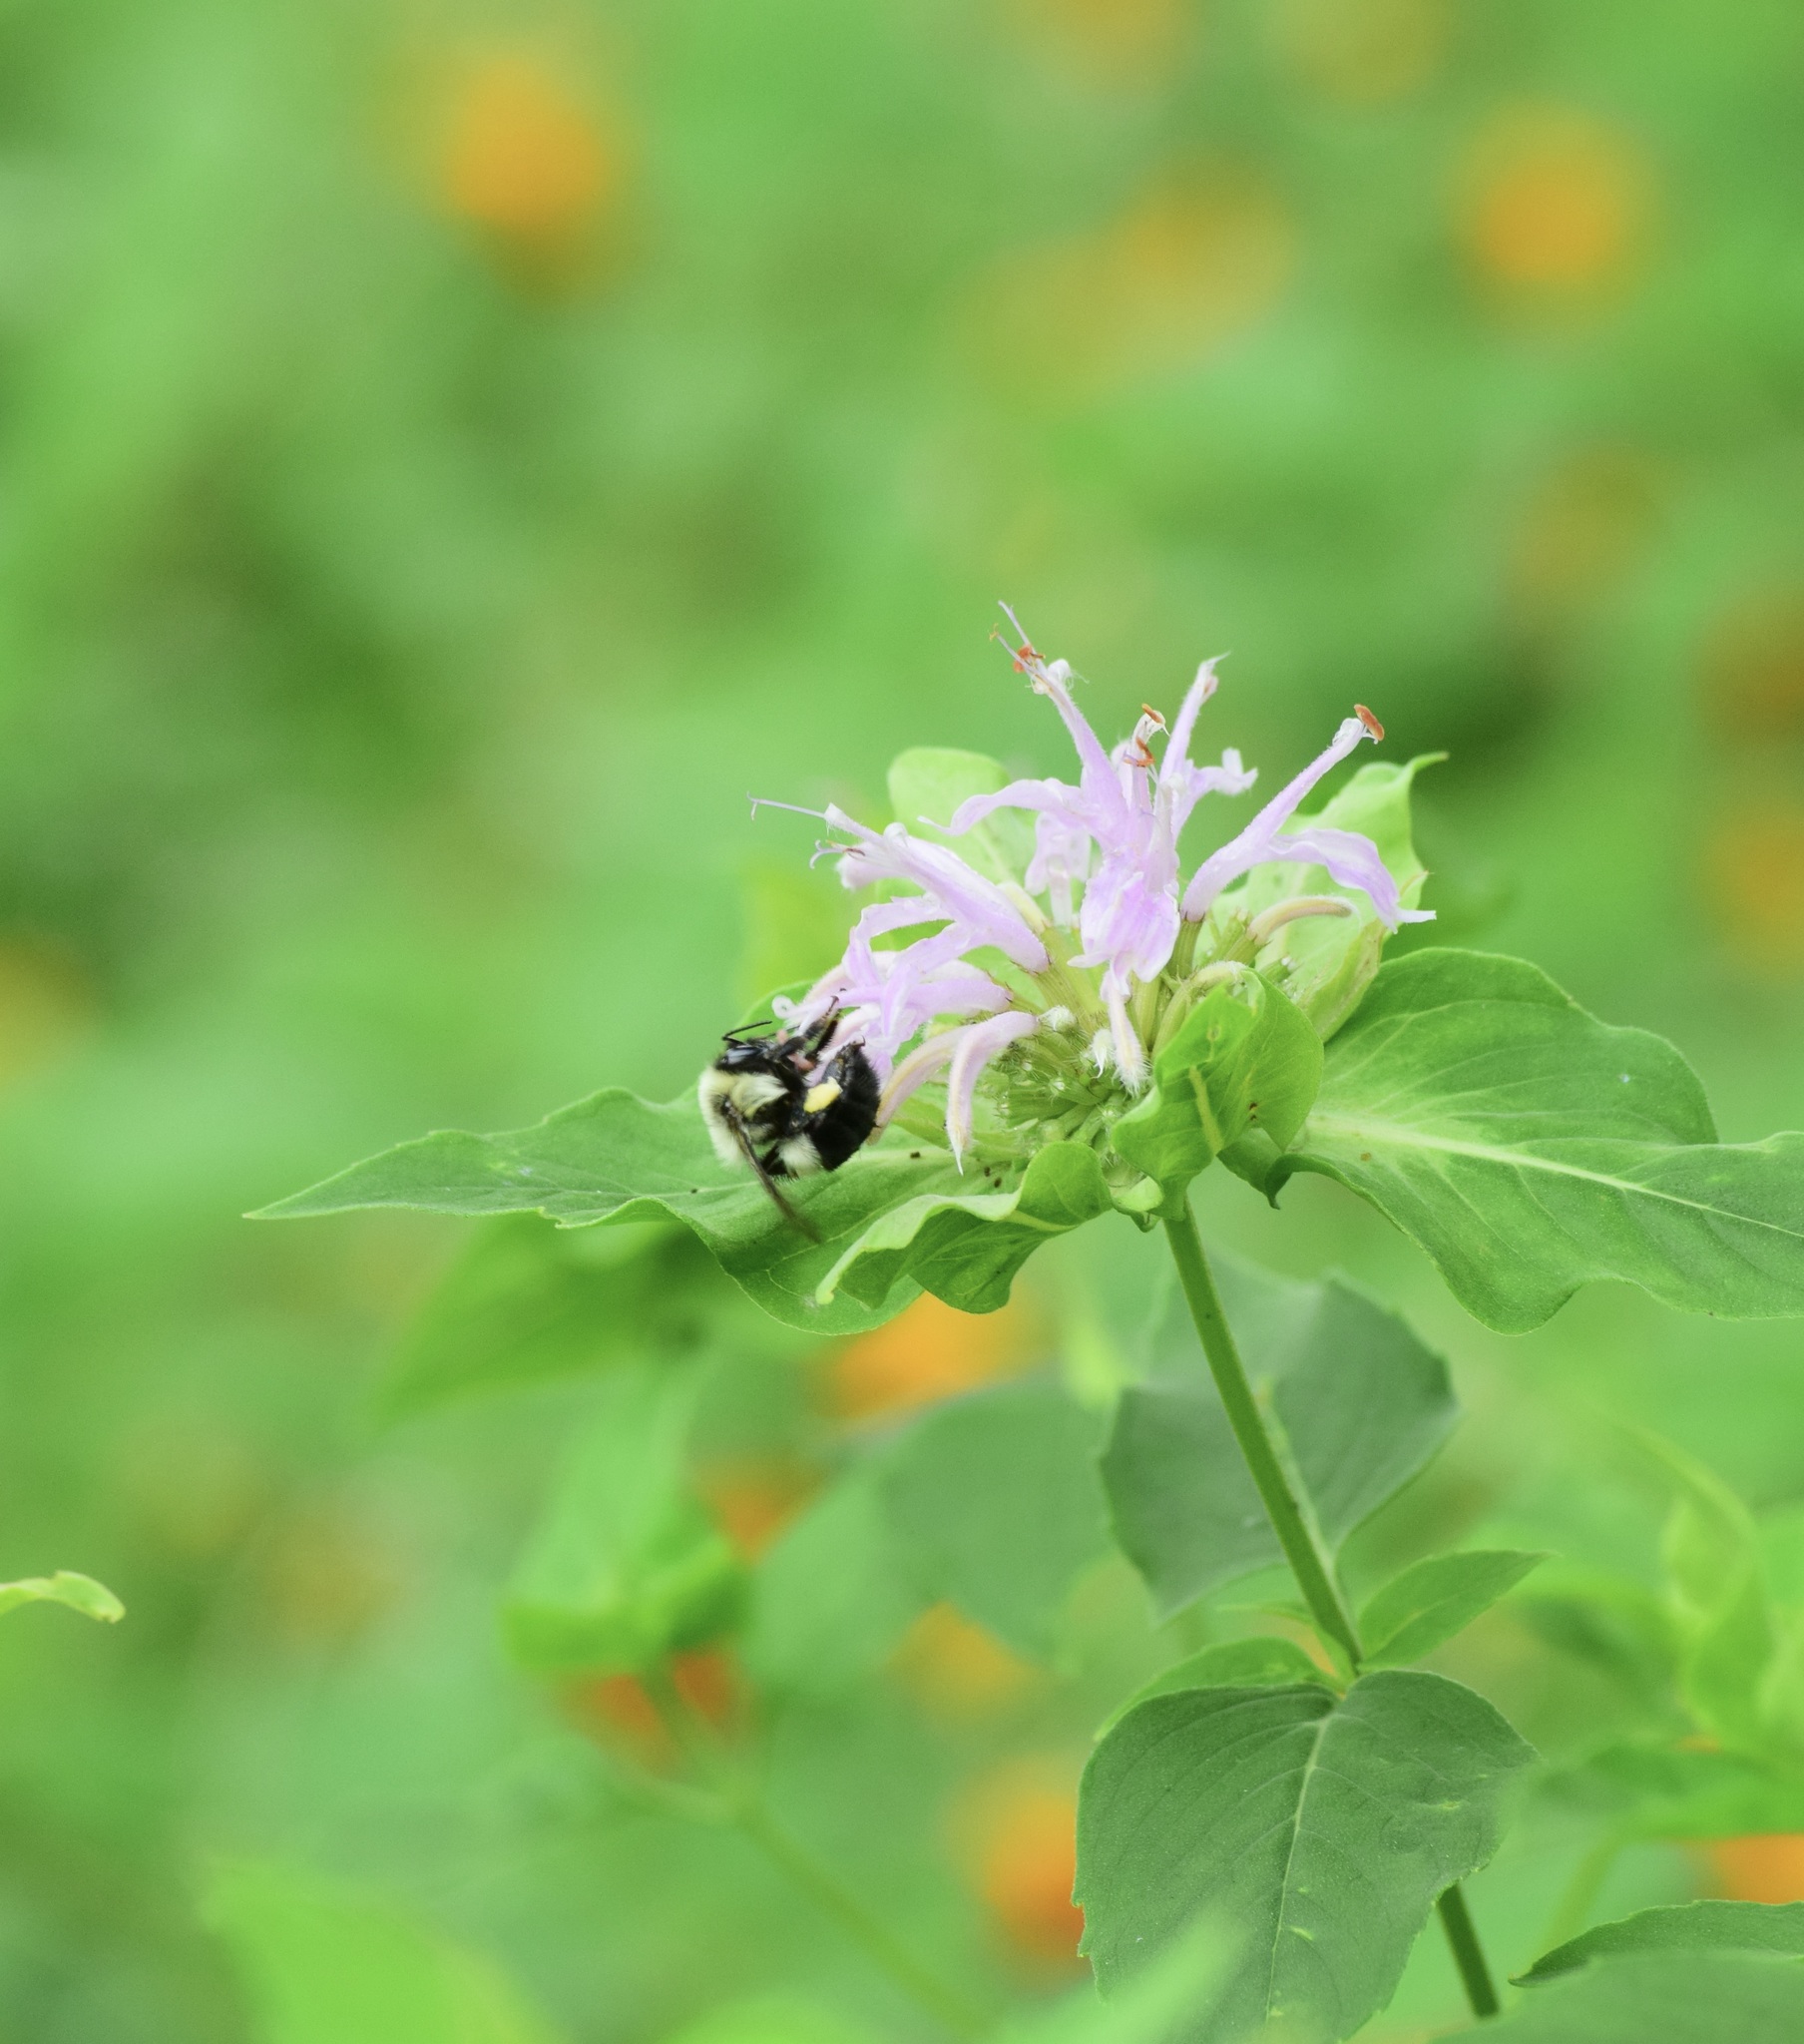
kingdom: Animalia
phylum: Arthropoda
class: Insecta
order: Hymenoptera
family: Apidae
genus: Bombus
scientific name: Bombus impatiens
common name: Common eastern bumble bee
